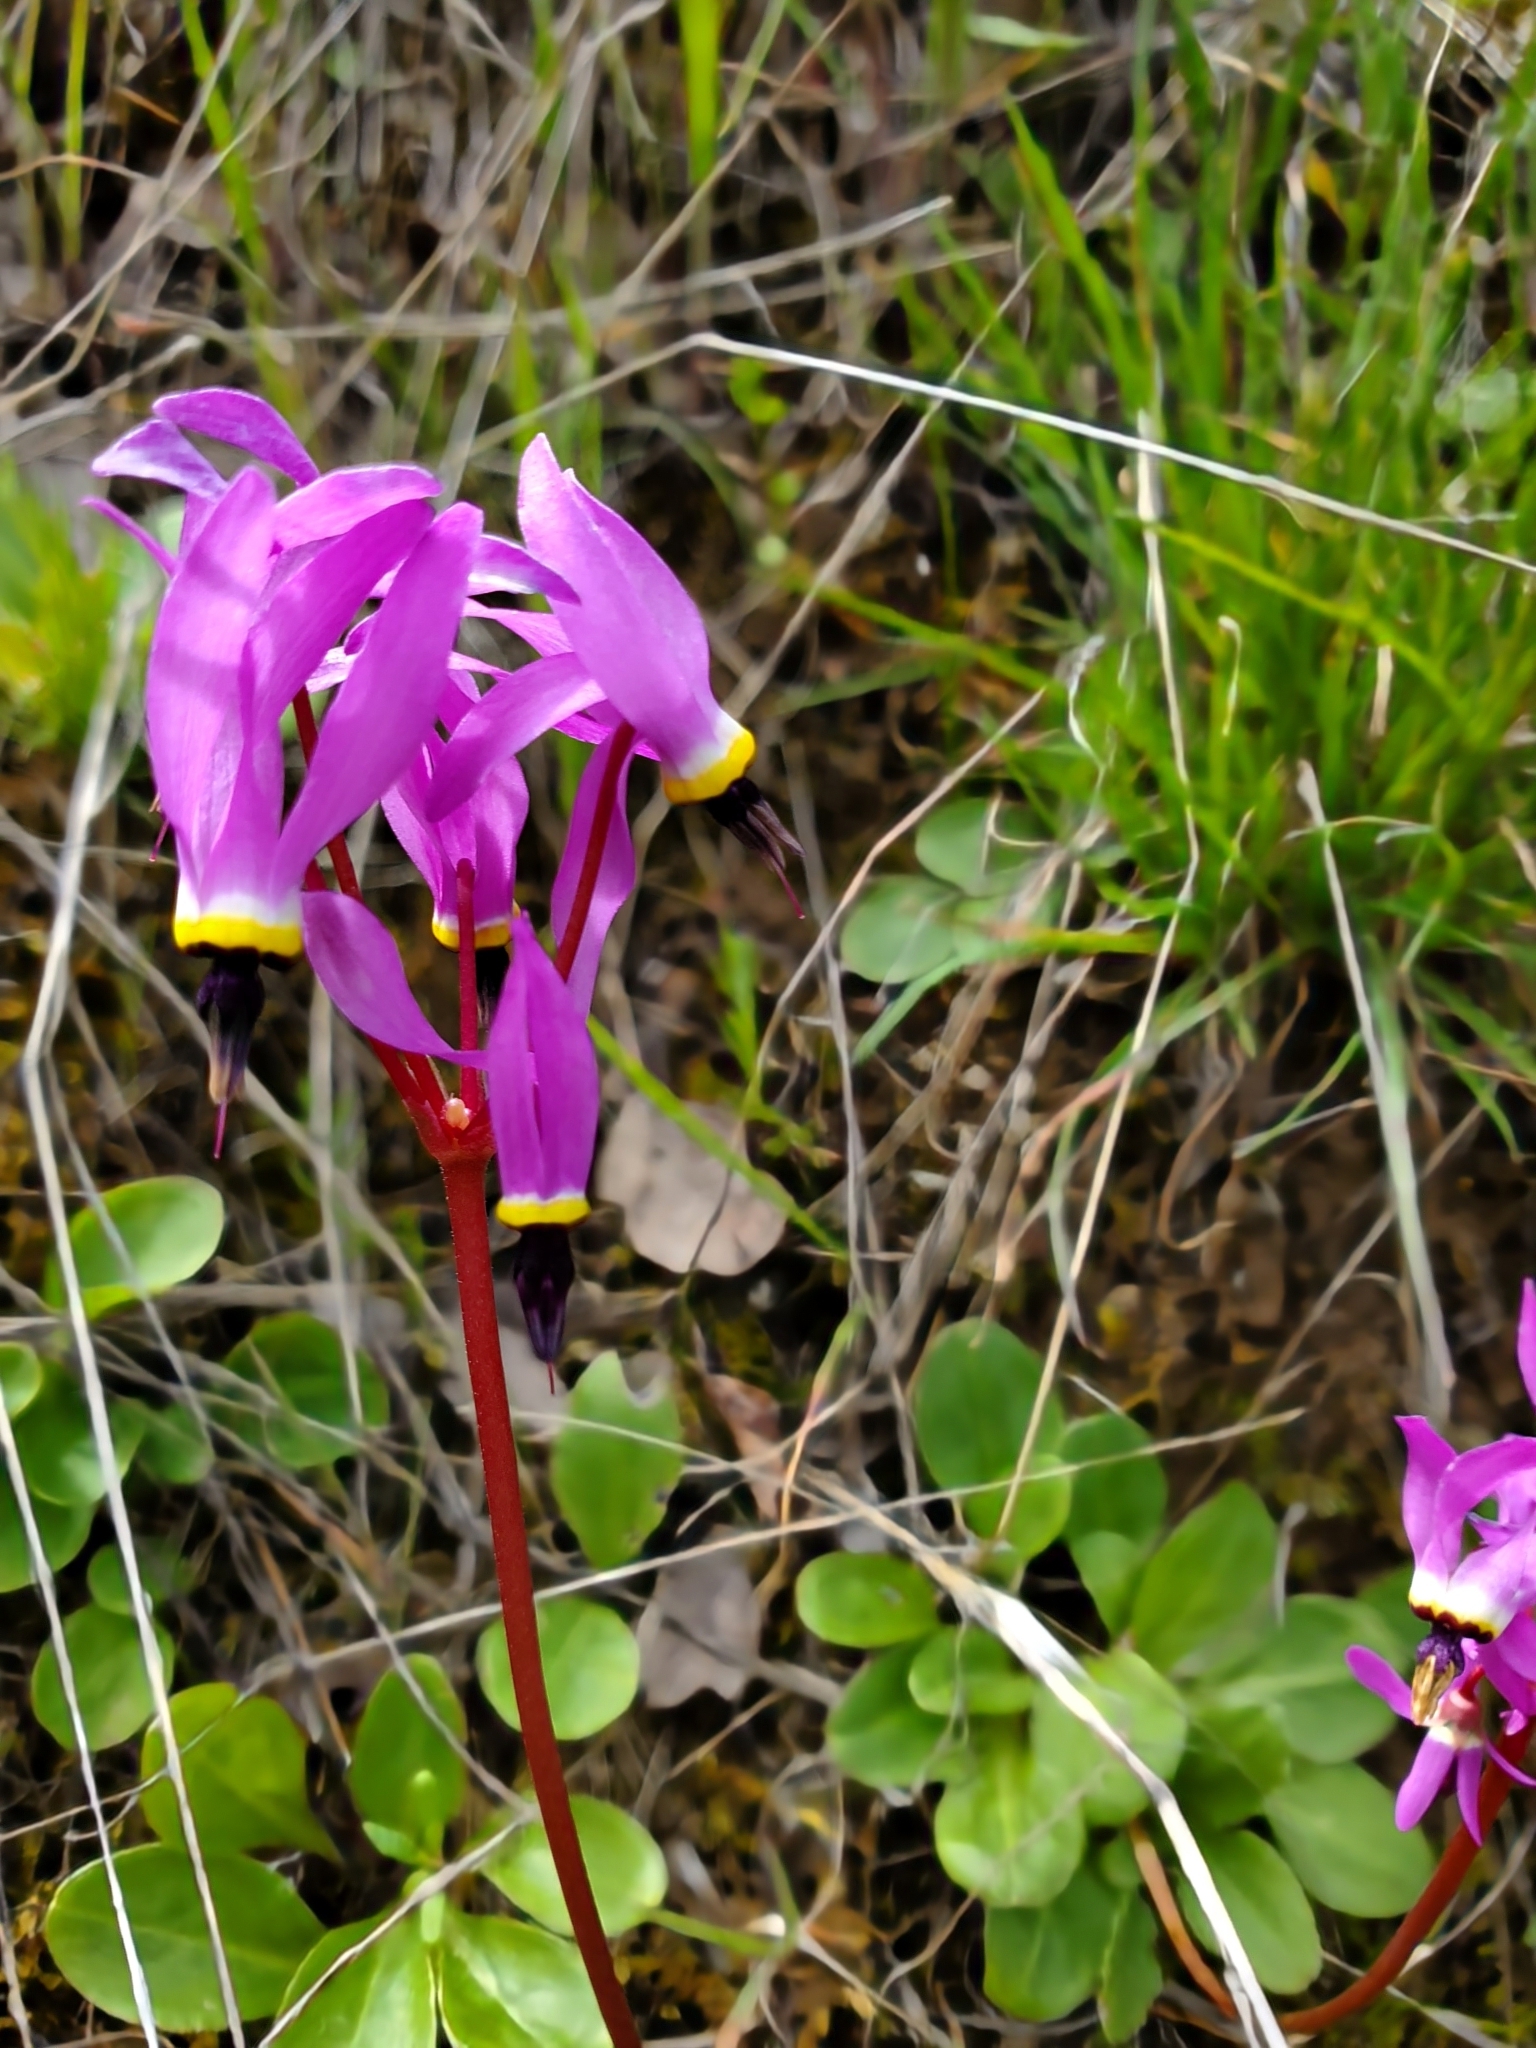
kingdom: Plantae
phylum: Tracheophyta
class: Magnoliopsida
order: Ericales
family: Primulaceae
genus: Dodecatheon
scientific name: Dodecatheon hendersonii
